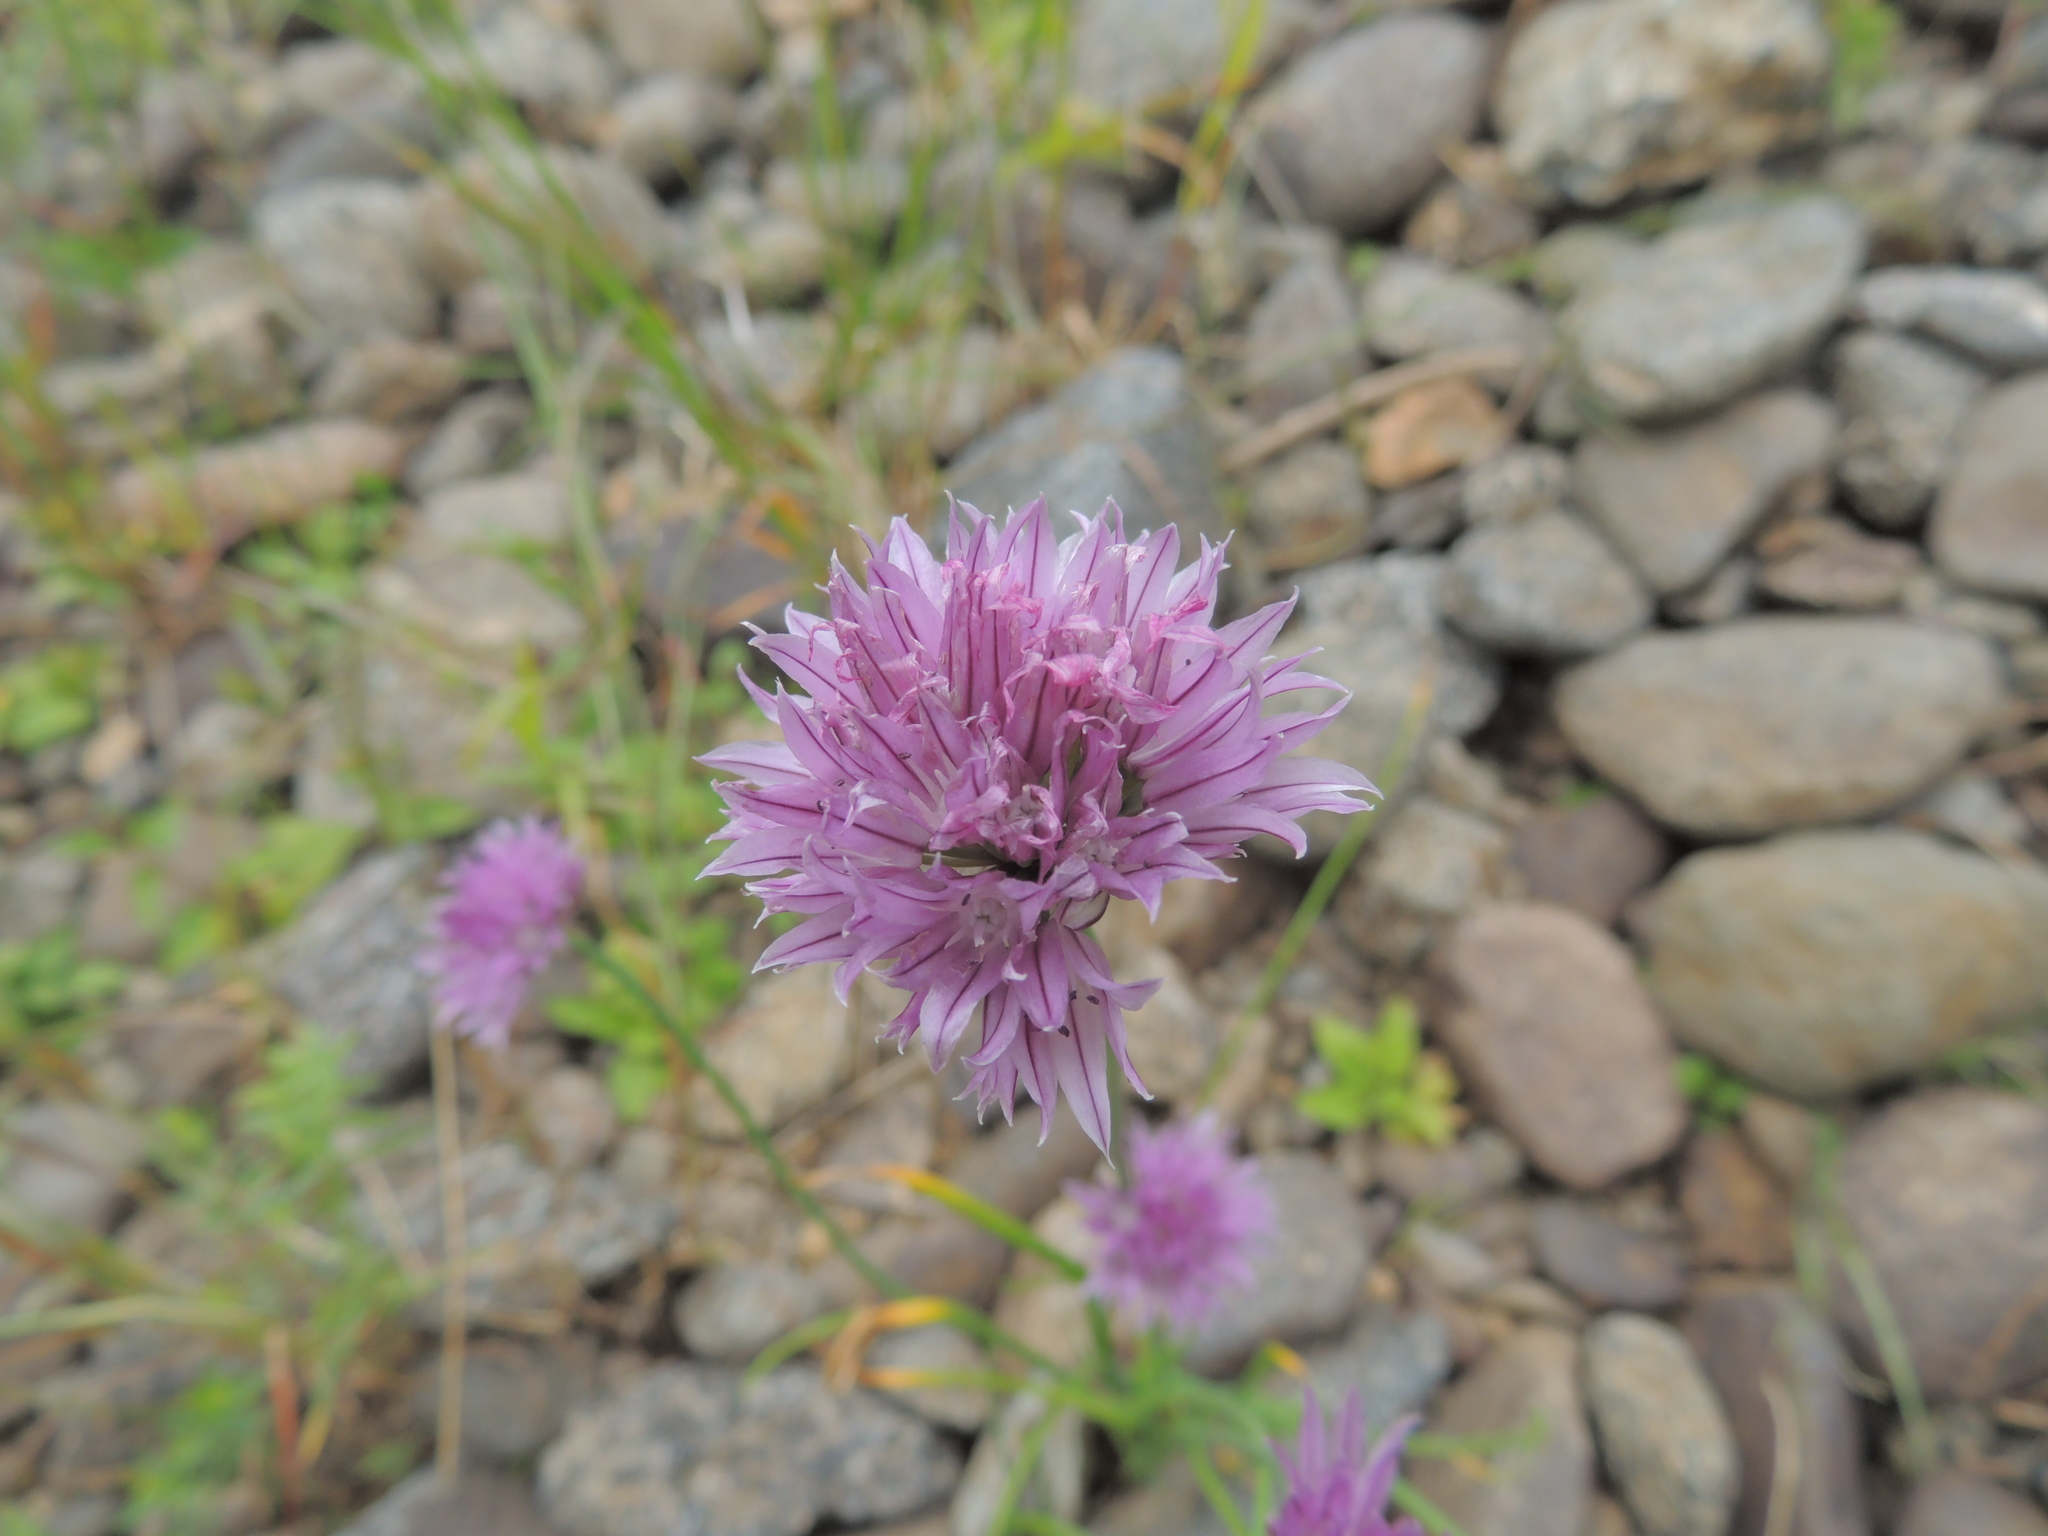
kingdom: Plantae
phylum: Tracheophyta
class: Liliopsida
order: Asparagales
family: Amaryllidaceae
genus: Allium
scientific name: Allium schoenoprasum
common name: Chives
